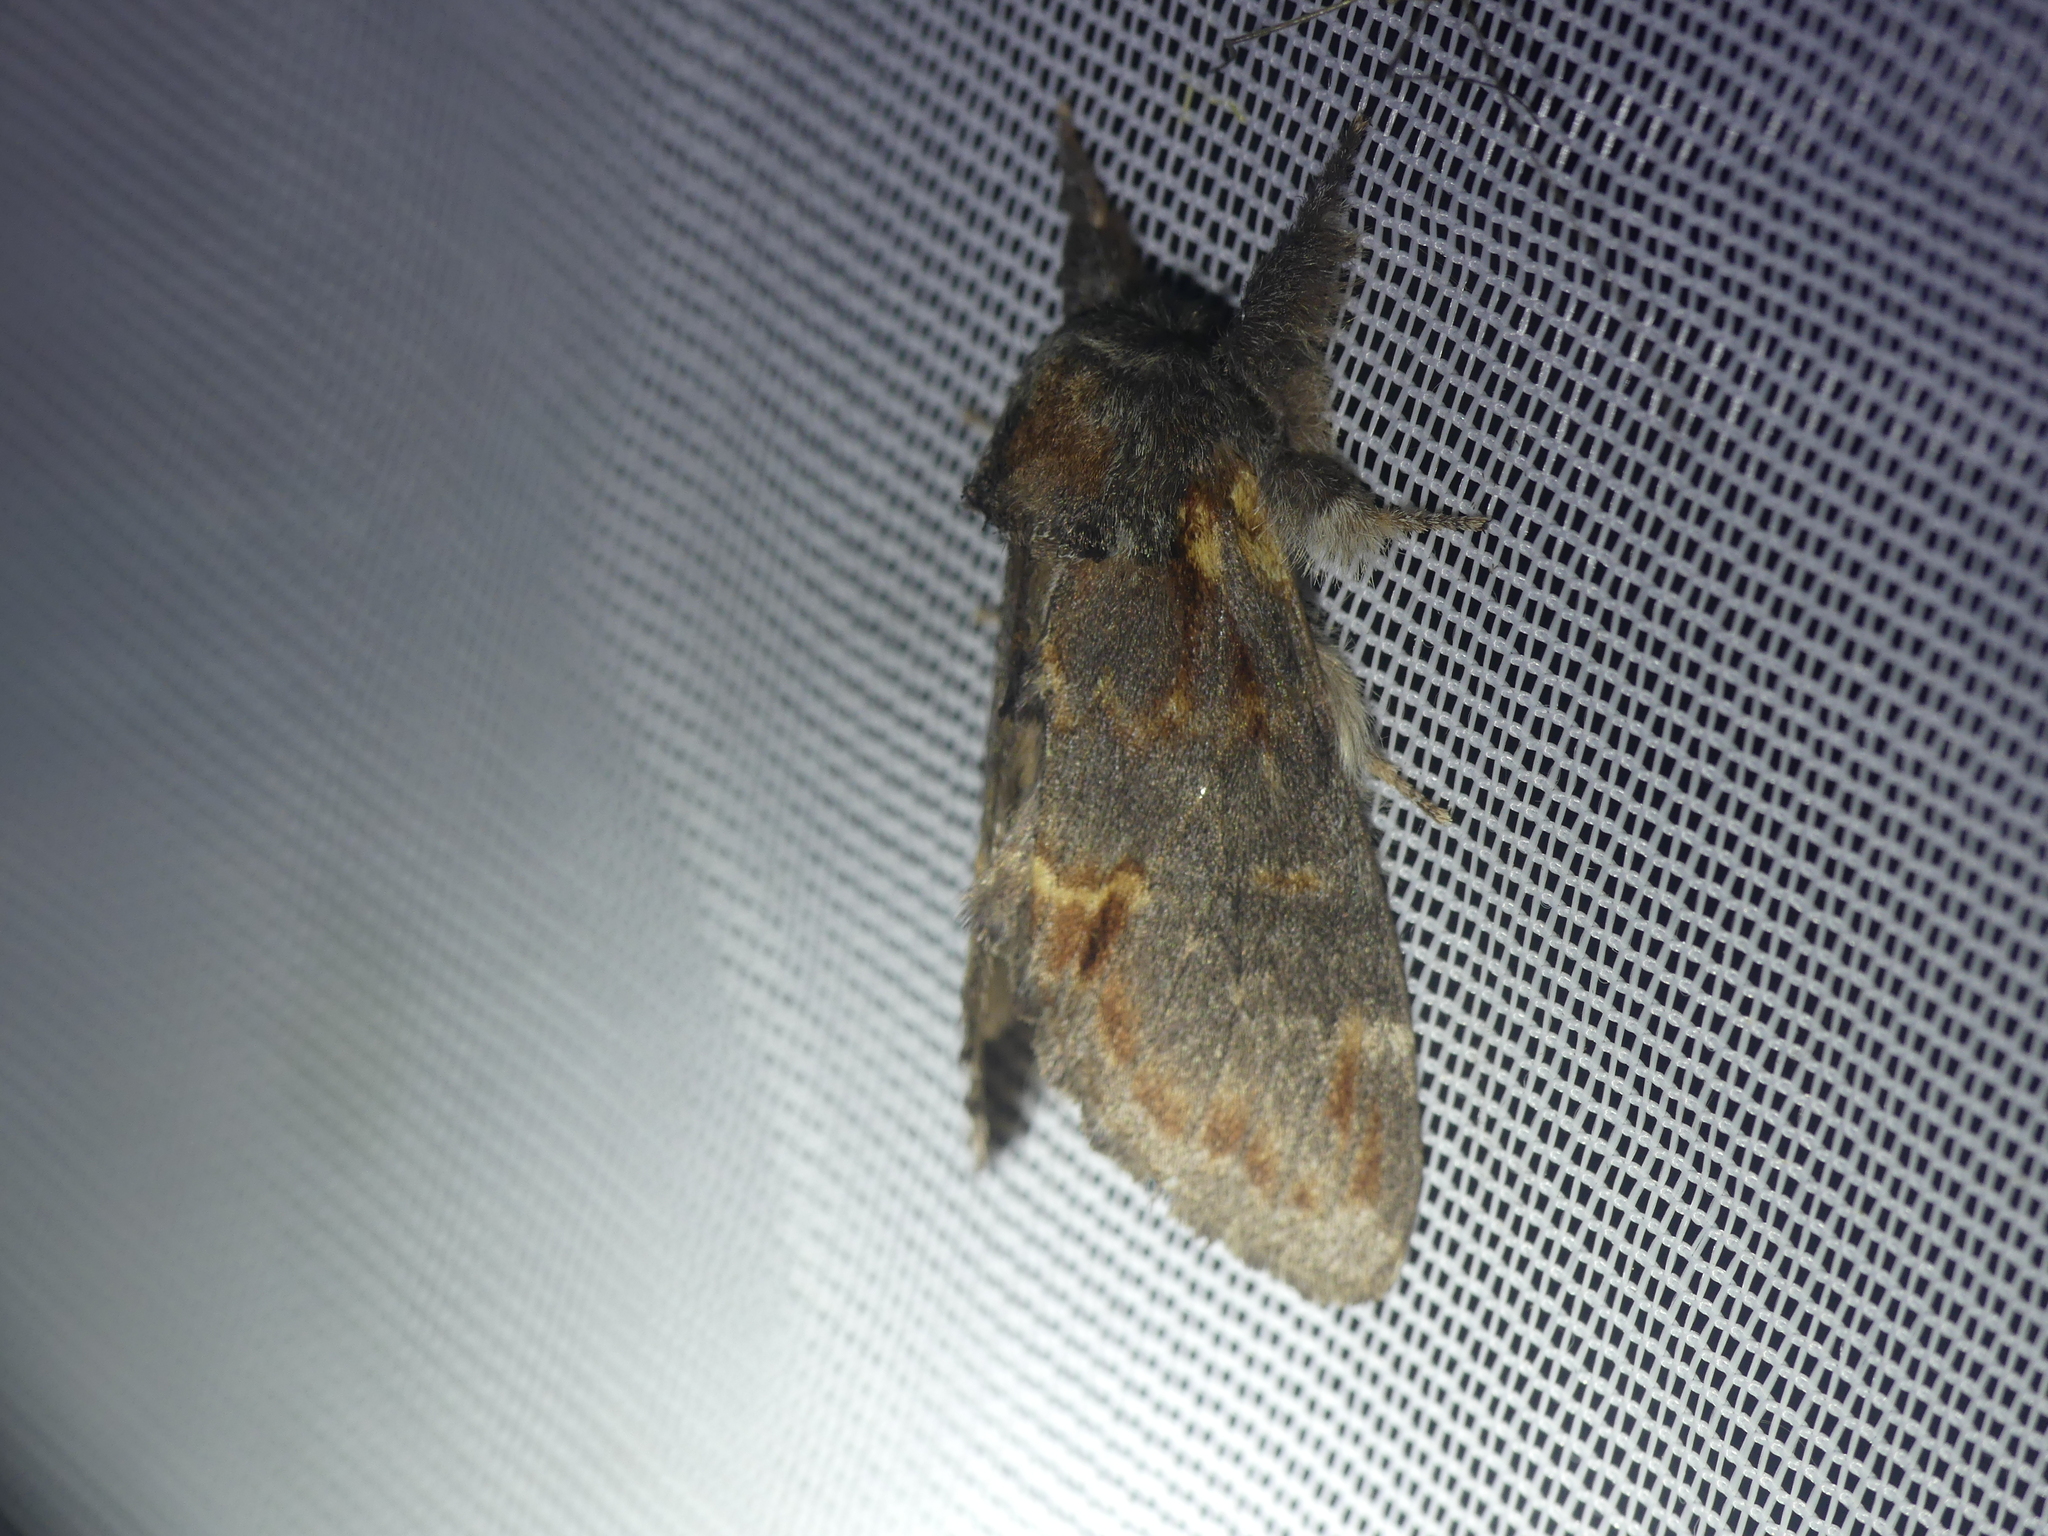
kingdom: Animalia
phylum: Arthropoda
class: Insecta
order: Lepidoptera
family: Notodontidae
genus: Notodonta
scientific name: Notodonta dromedarius
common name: Iron prominent
